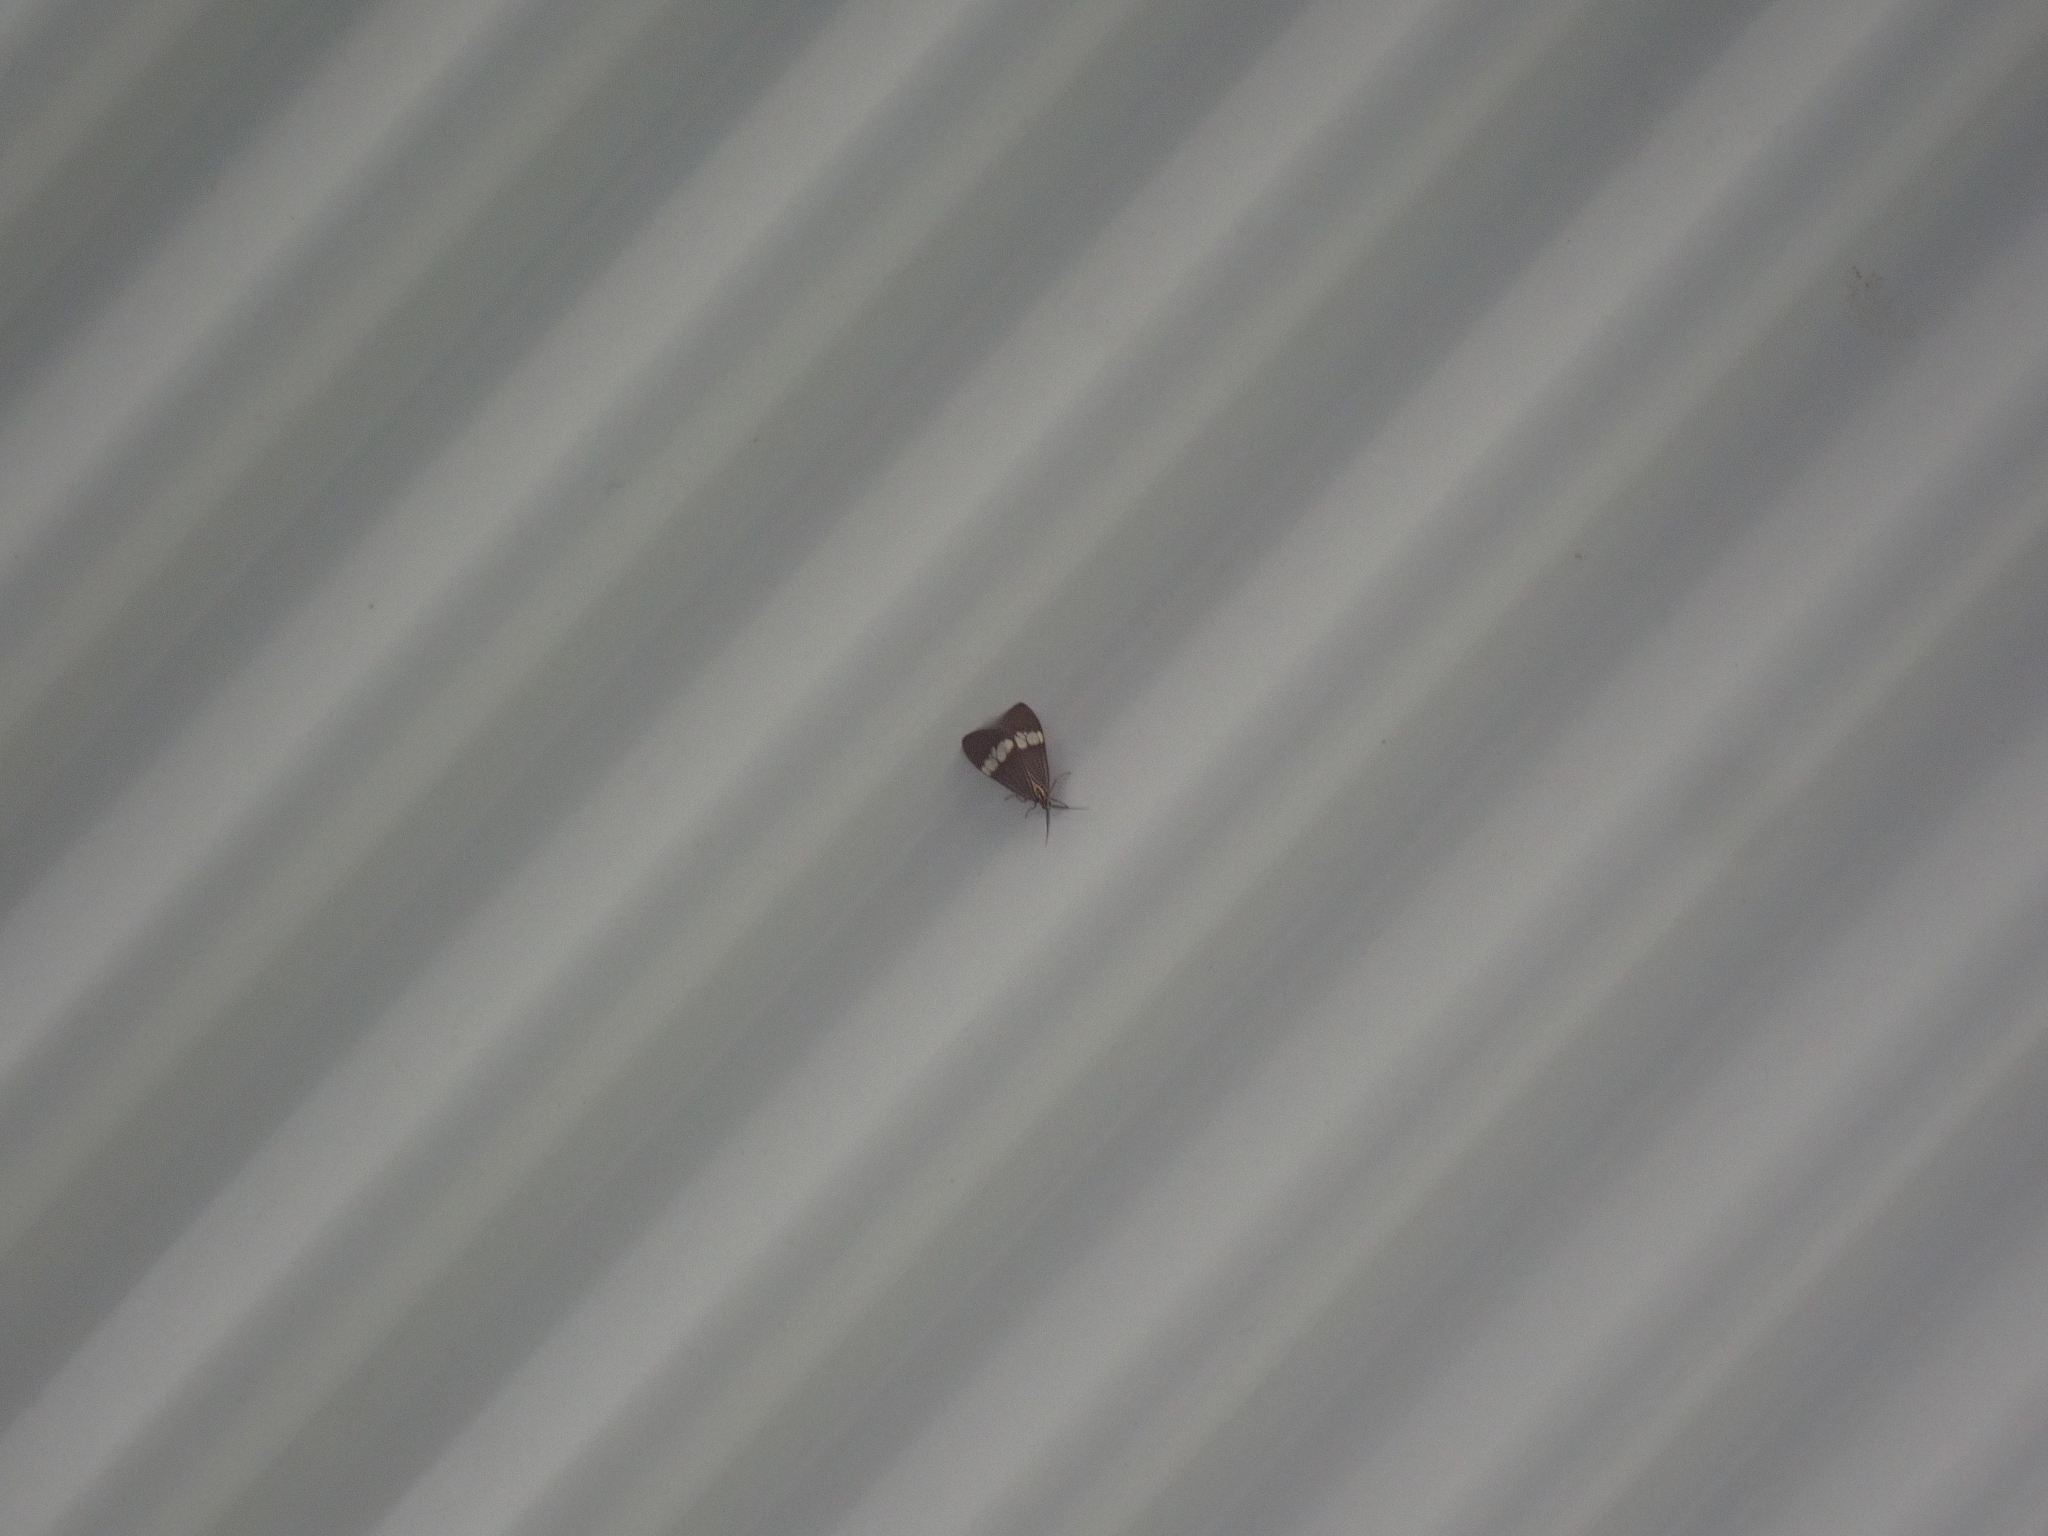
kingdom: Animalia
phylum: Arthropoda
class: Insecta
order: Lepidoptera
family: Erebidae
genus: Nyctemera
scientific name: Nyctemera baulus
